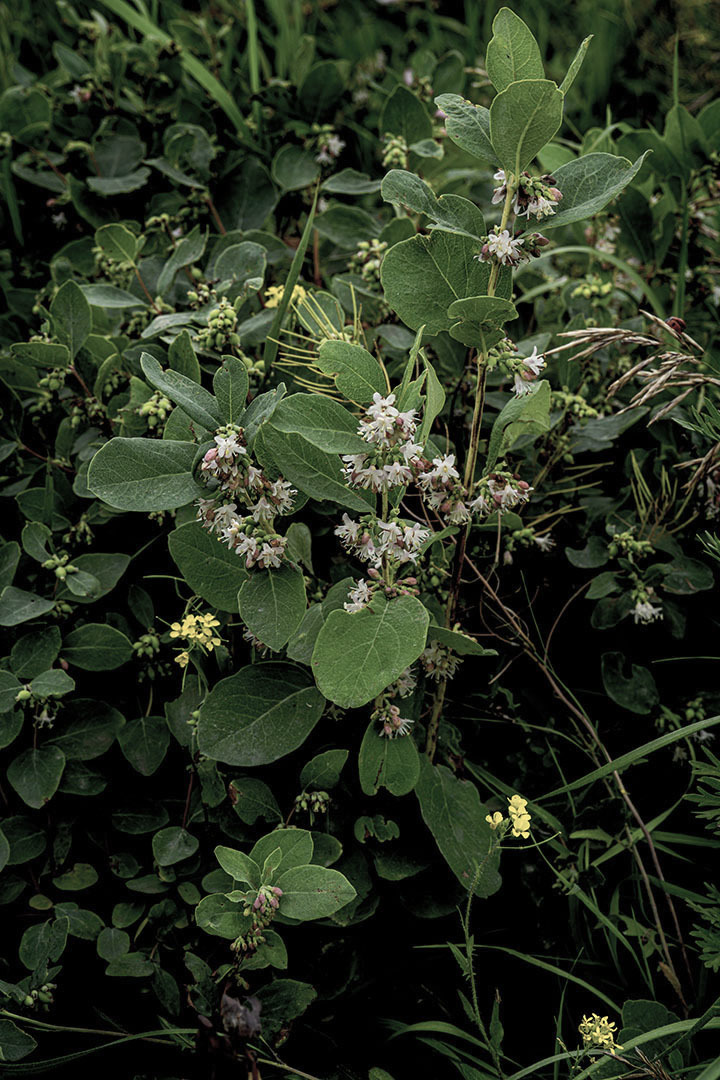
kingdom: Plantae
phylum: Tracheophyta
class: Magnoliopsida
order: Dipsacales
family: Caprifoliaceae
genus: Symphoricarpos
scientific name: Symphoricarpos occidentalis
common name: Wolfberry
